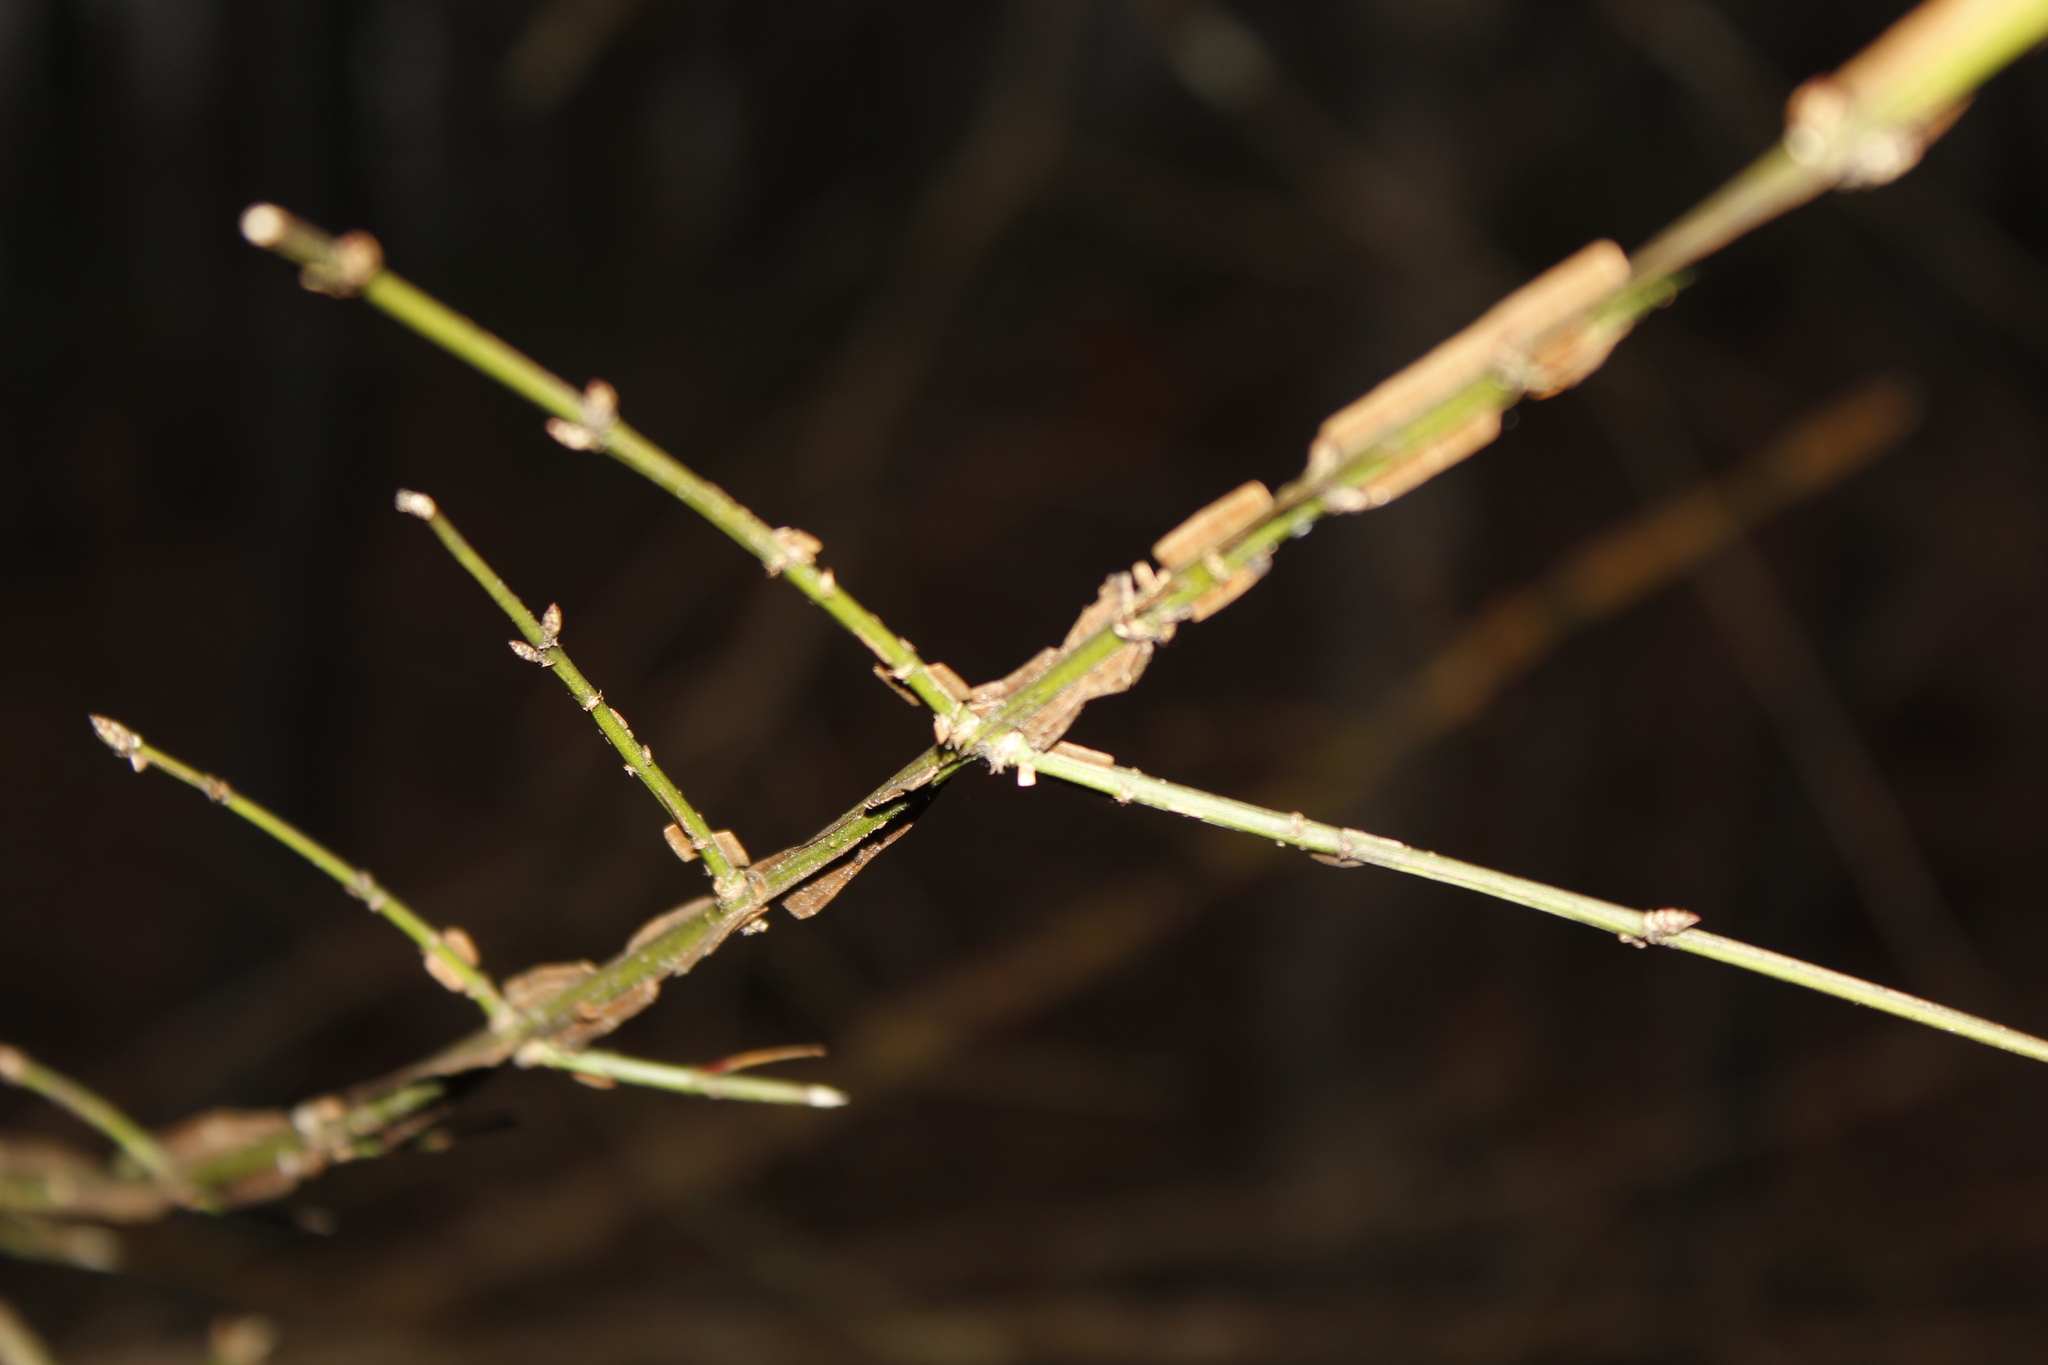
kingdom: Plantae
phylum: Tracheophyta
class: Magnoliopsida
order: Celastrales
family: Celastraceae
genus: Euonymus
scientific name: Euonymus alatus
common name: Winged euonymus
